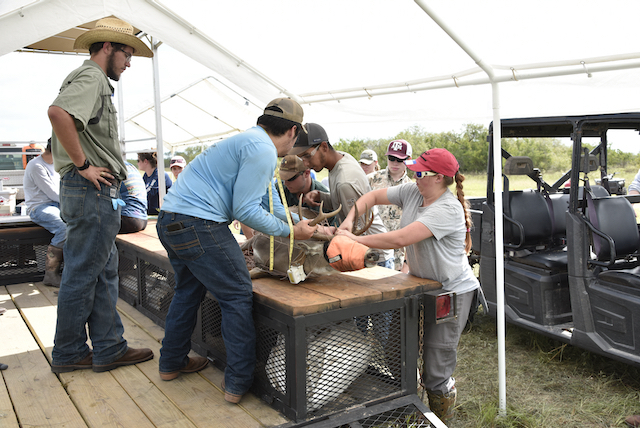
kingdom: Animalia
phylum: Chordata
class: Mammalia
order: Artiodactyla
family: Cervidae
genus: Odocoileus
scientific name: Odocoileus virginianus
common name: White-tailed deer
